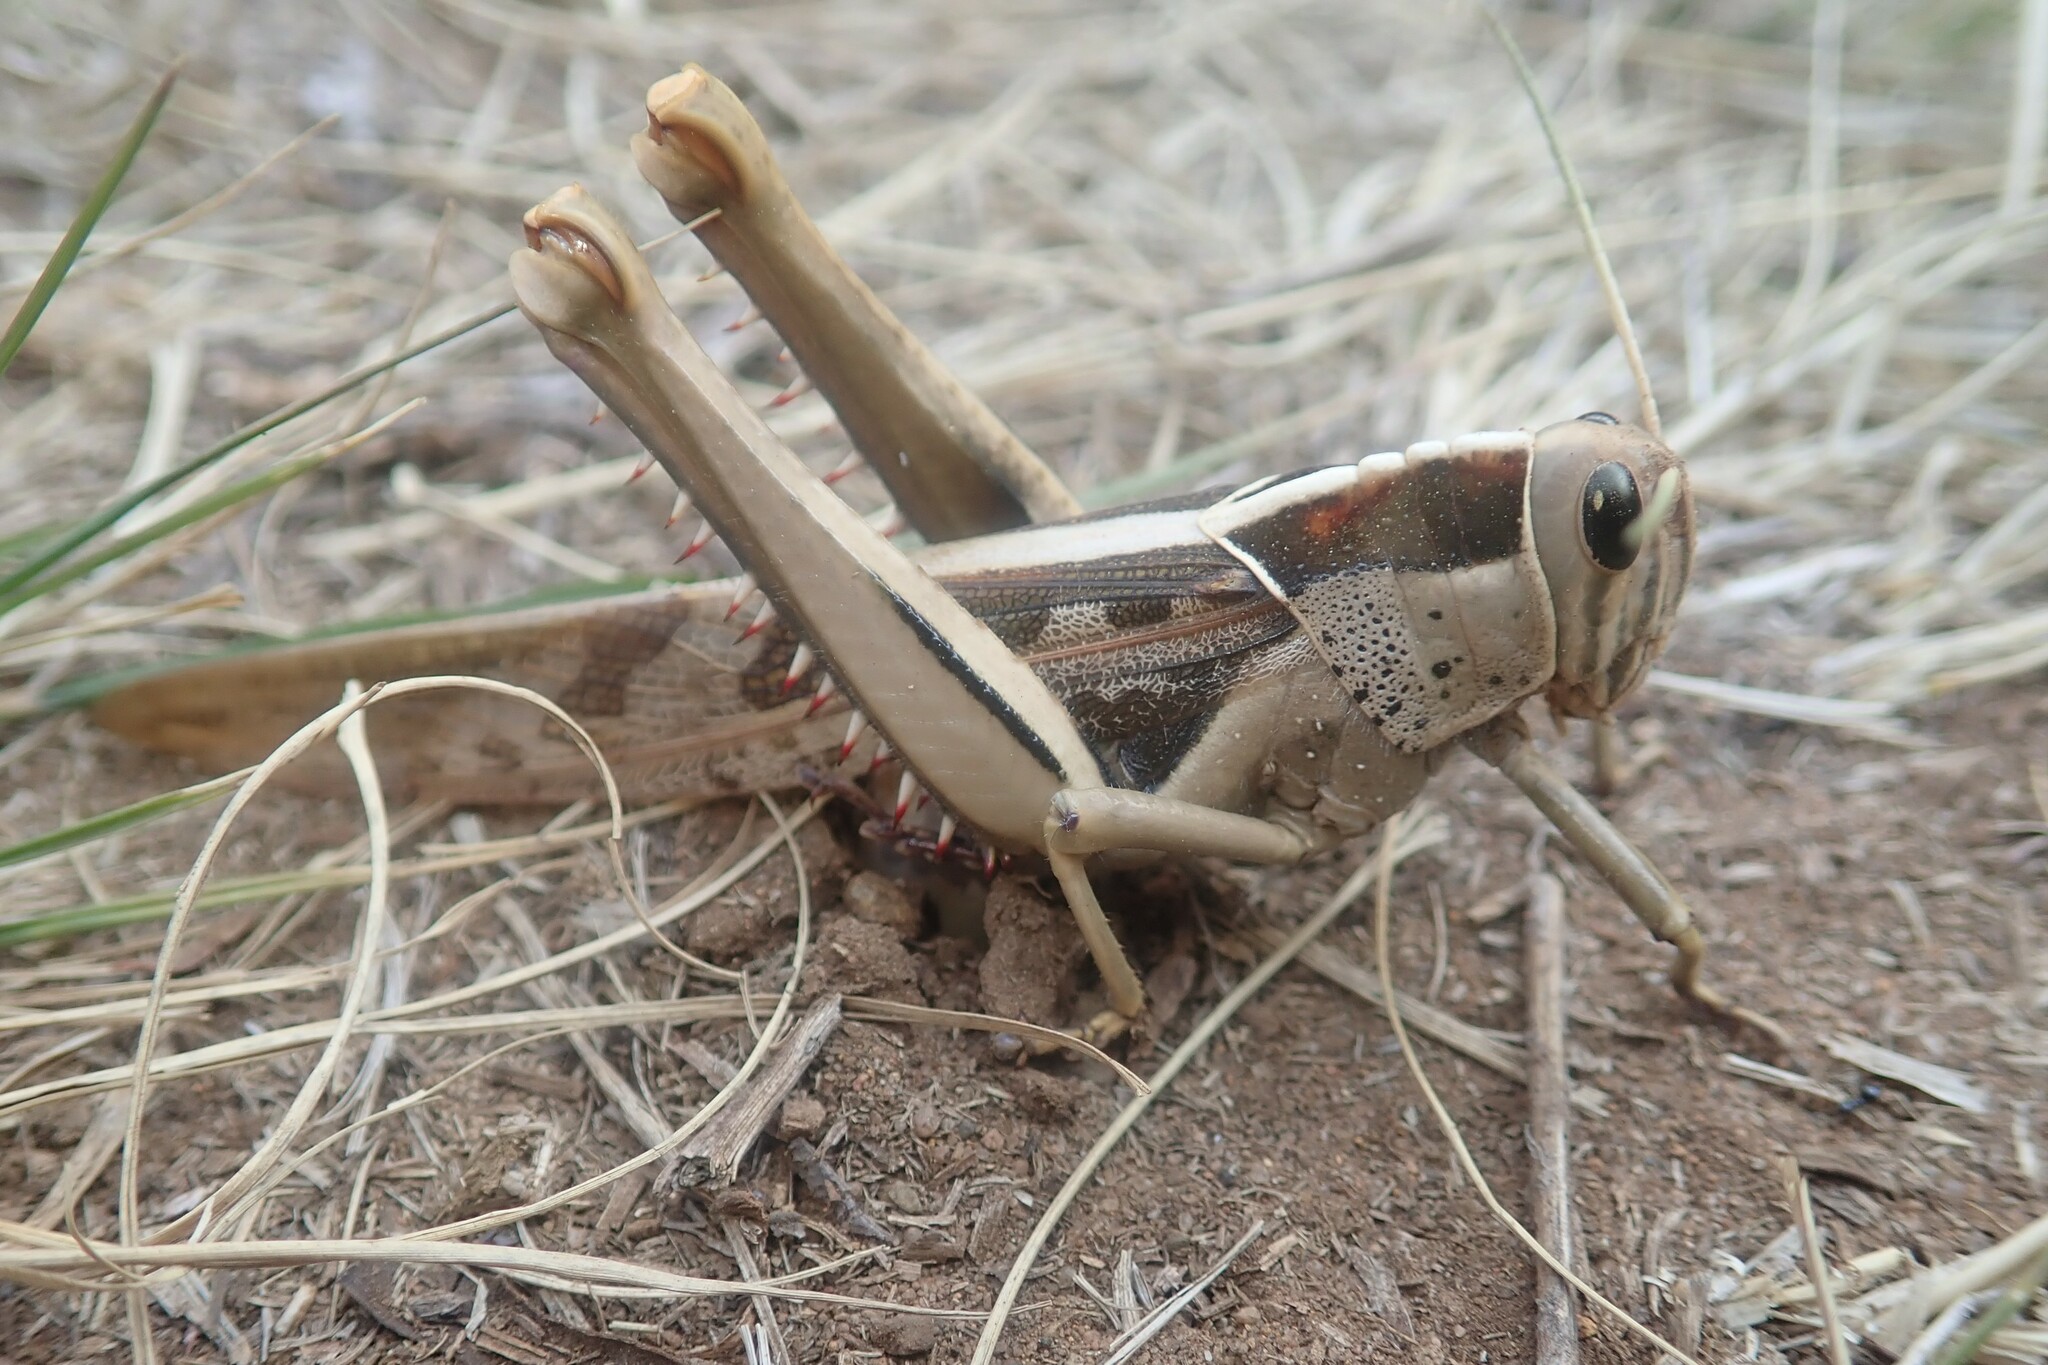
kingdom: Animalia
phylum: Arthropoda
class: Insecta
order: Orthoptera
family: Acrididae
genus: Acanthacris
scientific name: Acanthacris ruficornis
